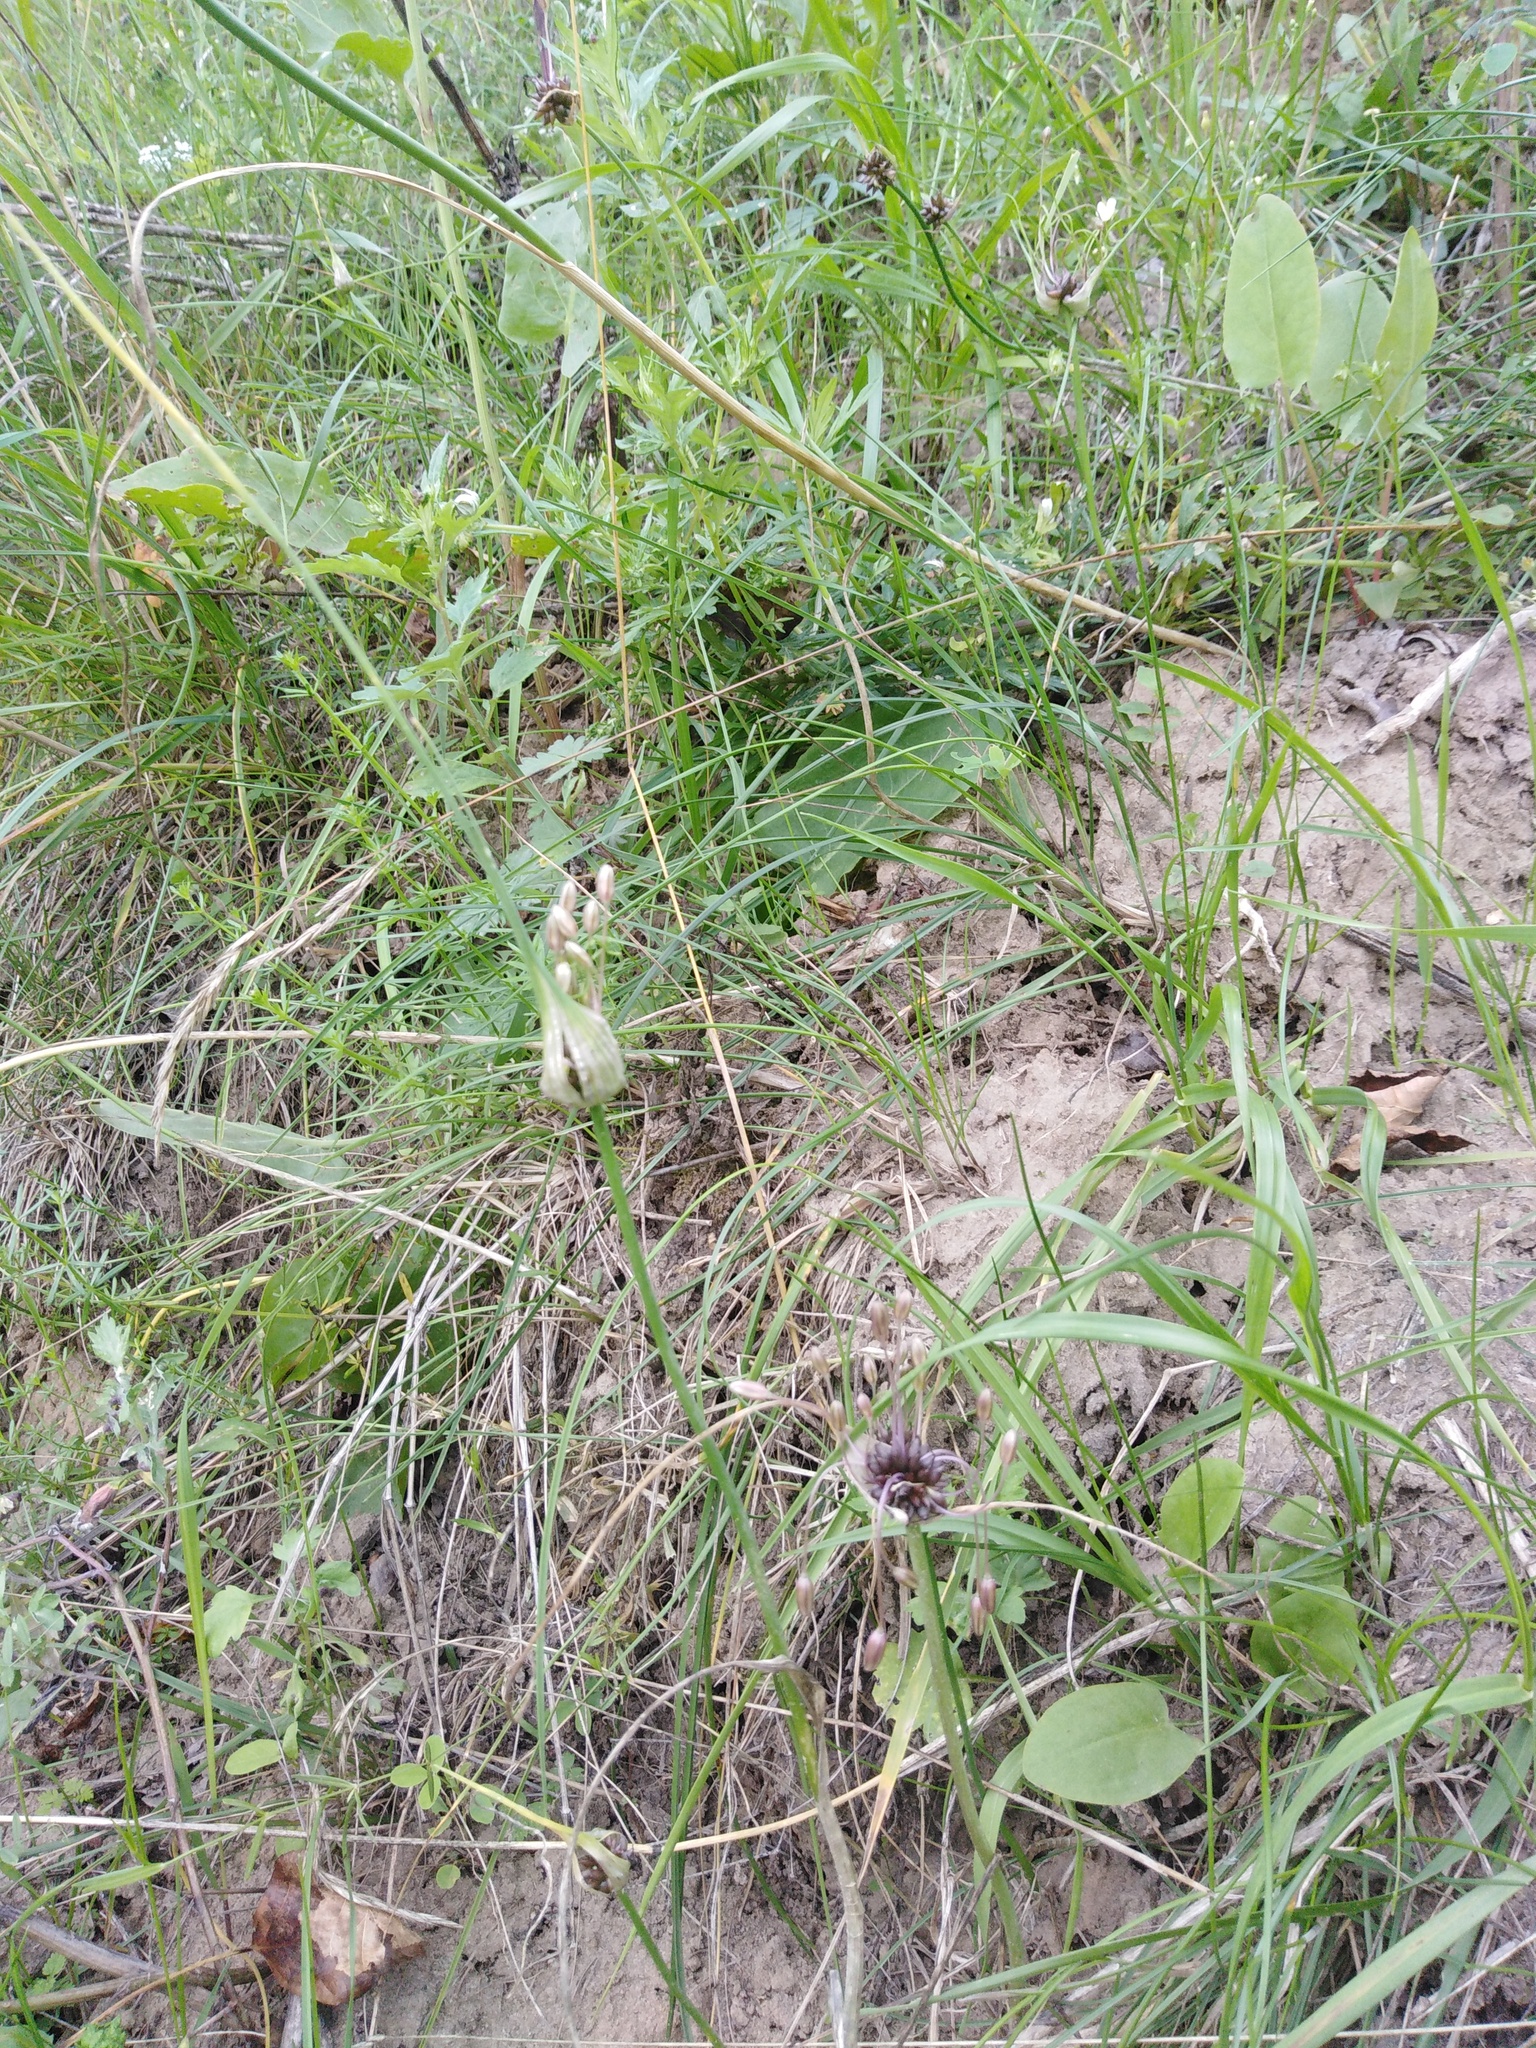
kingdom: Plantae
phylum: Tracheophyta
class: Liliopsida
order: Asparagales
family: Amaryllidaceae
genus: Allium
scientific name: Allium oleraceum
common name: Field garlic
